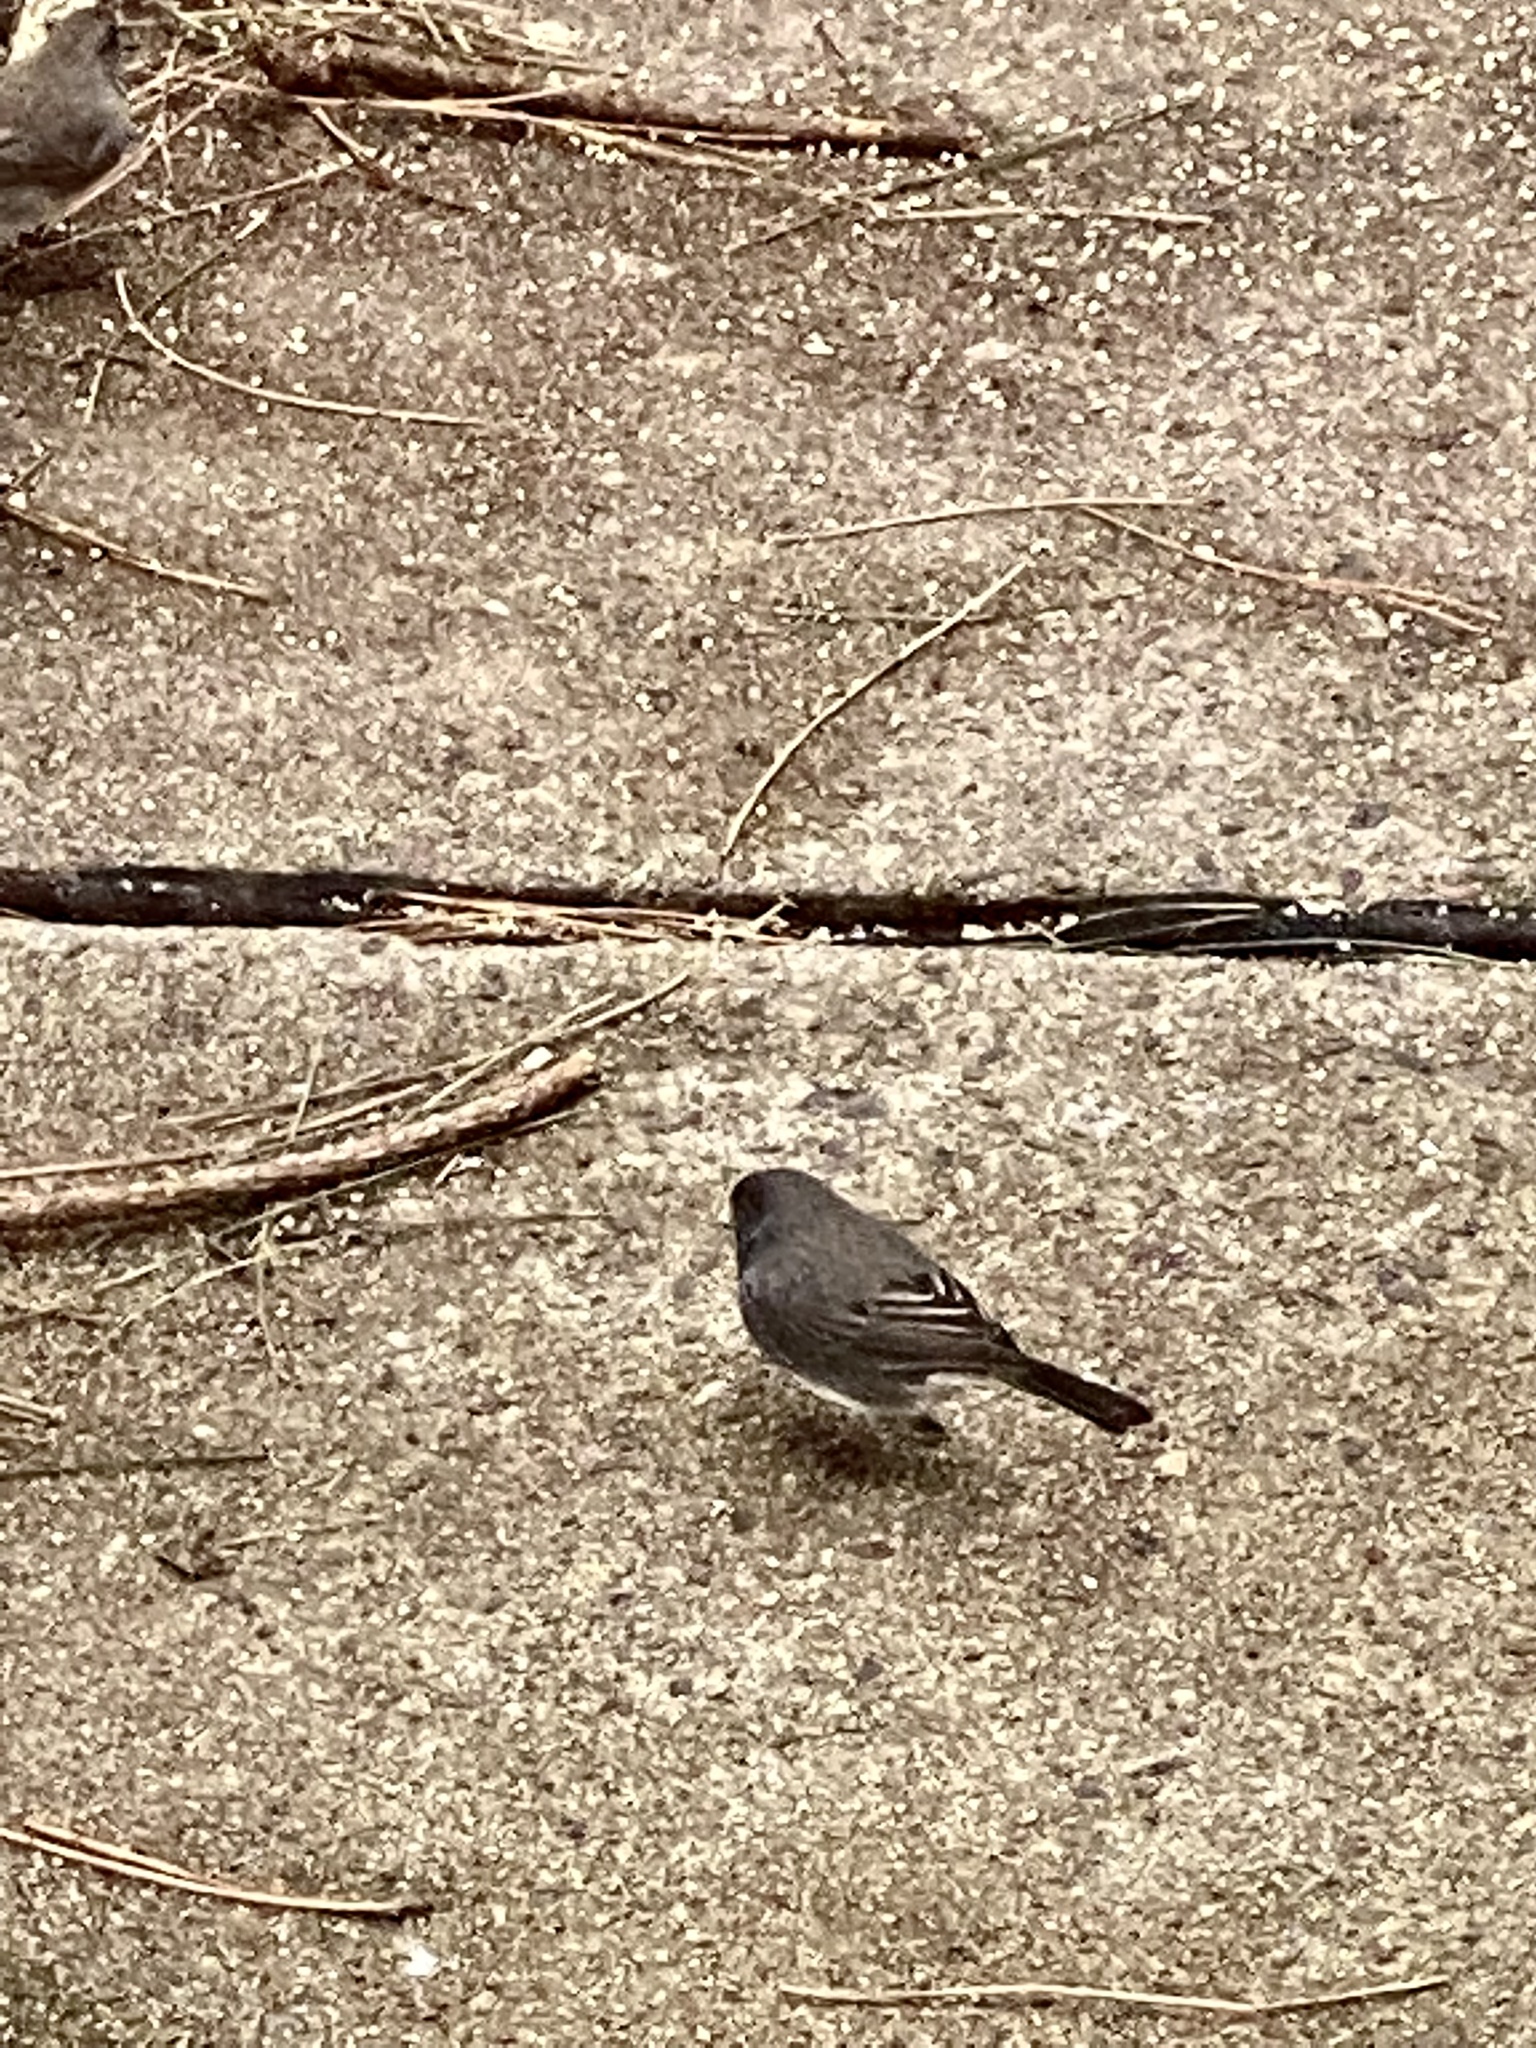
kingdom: Animalia
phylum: Chordata
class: Aves
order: Passeriformes
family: Passerellidae
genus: Junco
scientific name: Junco hyemalis
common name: Dark-eyed junco
